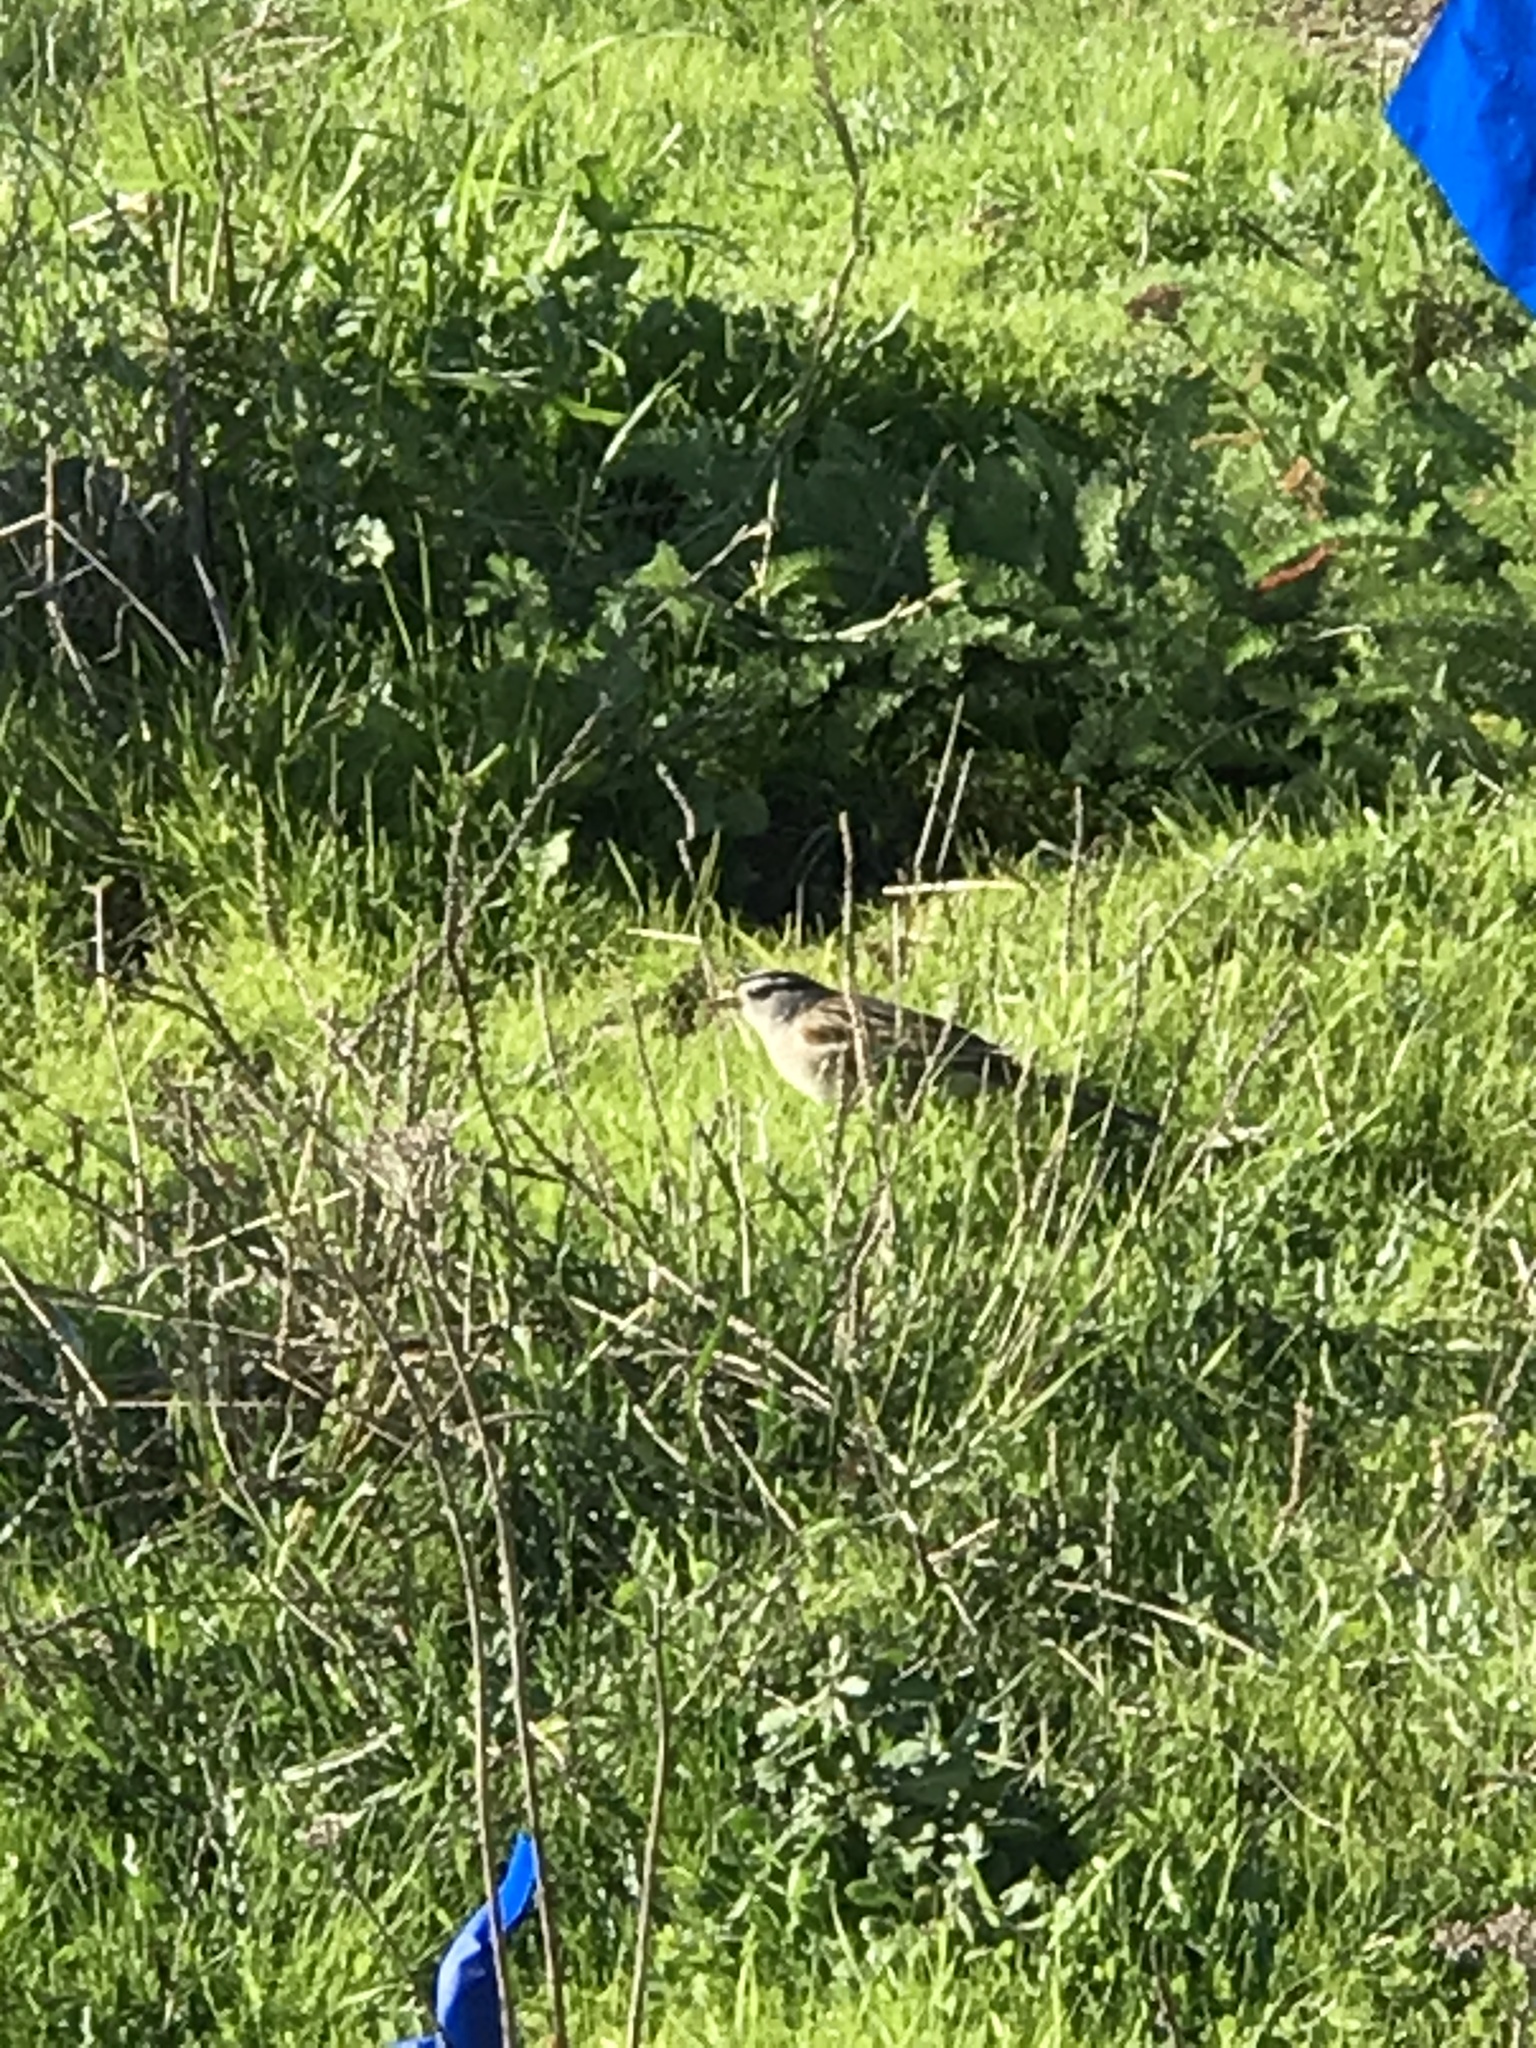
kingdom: Animalia
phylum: Chordata
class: Aves
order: Passeriformes
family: Passerellidae
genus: Zonotrichia
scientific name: Zonotrichia leucophrys
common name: White-crowned sparrow
